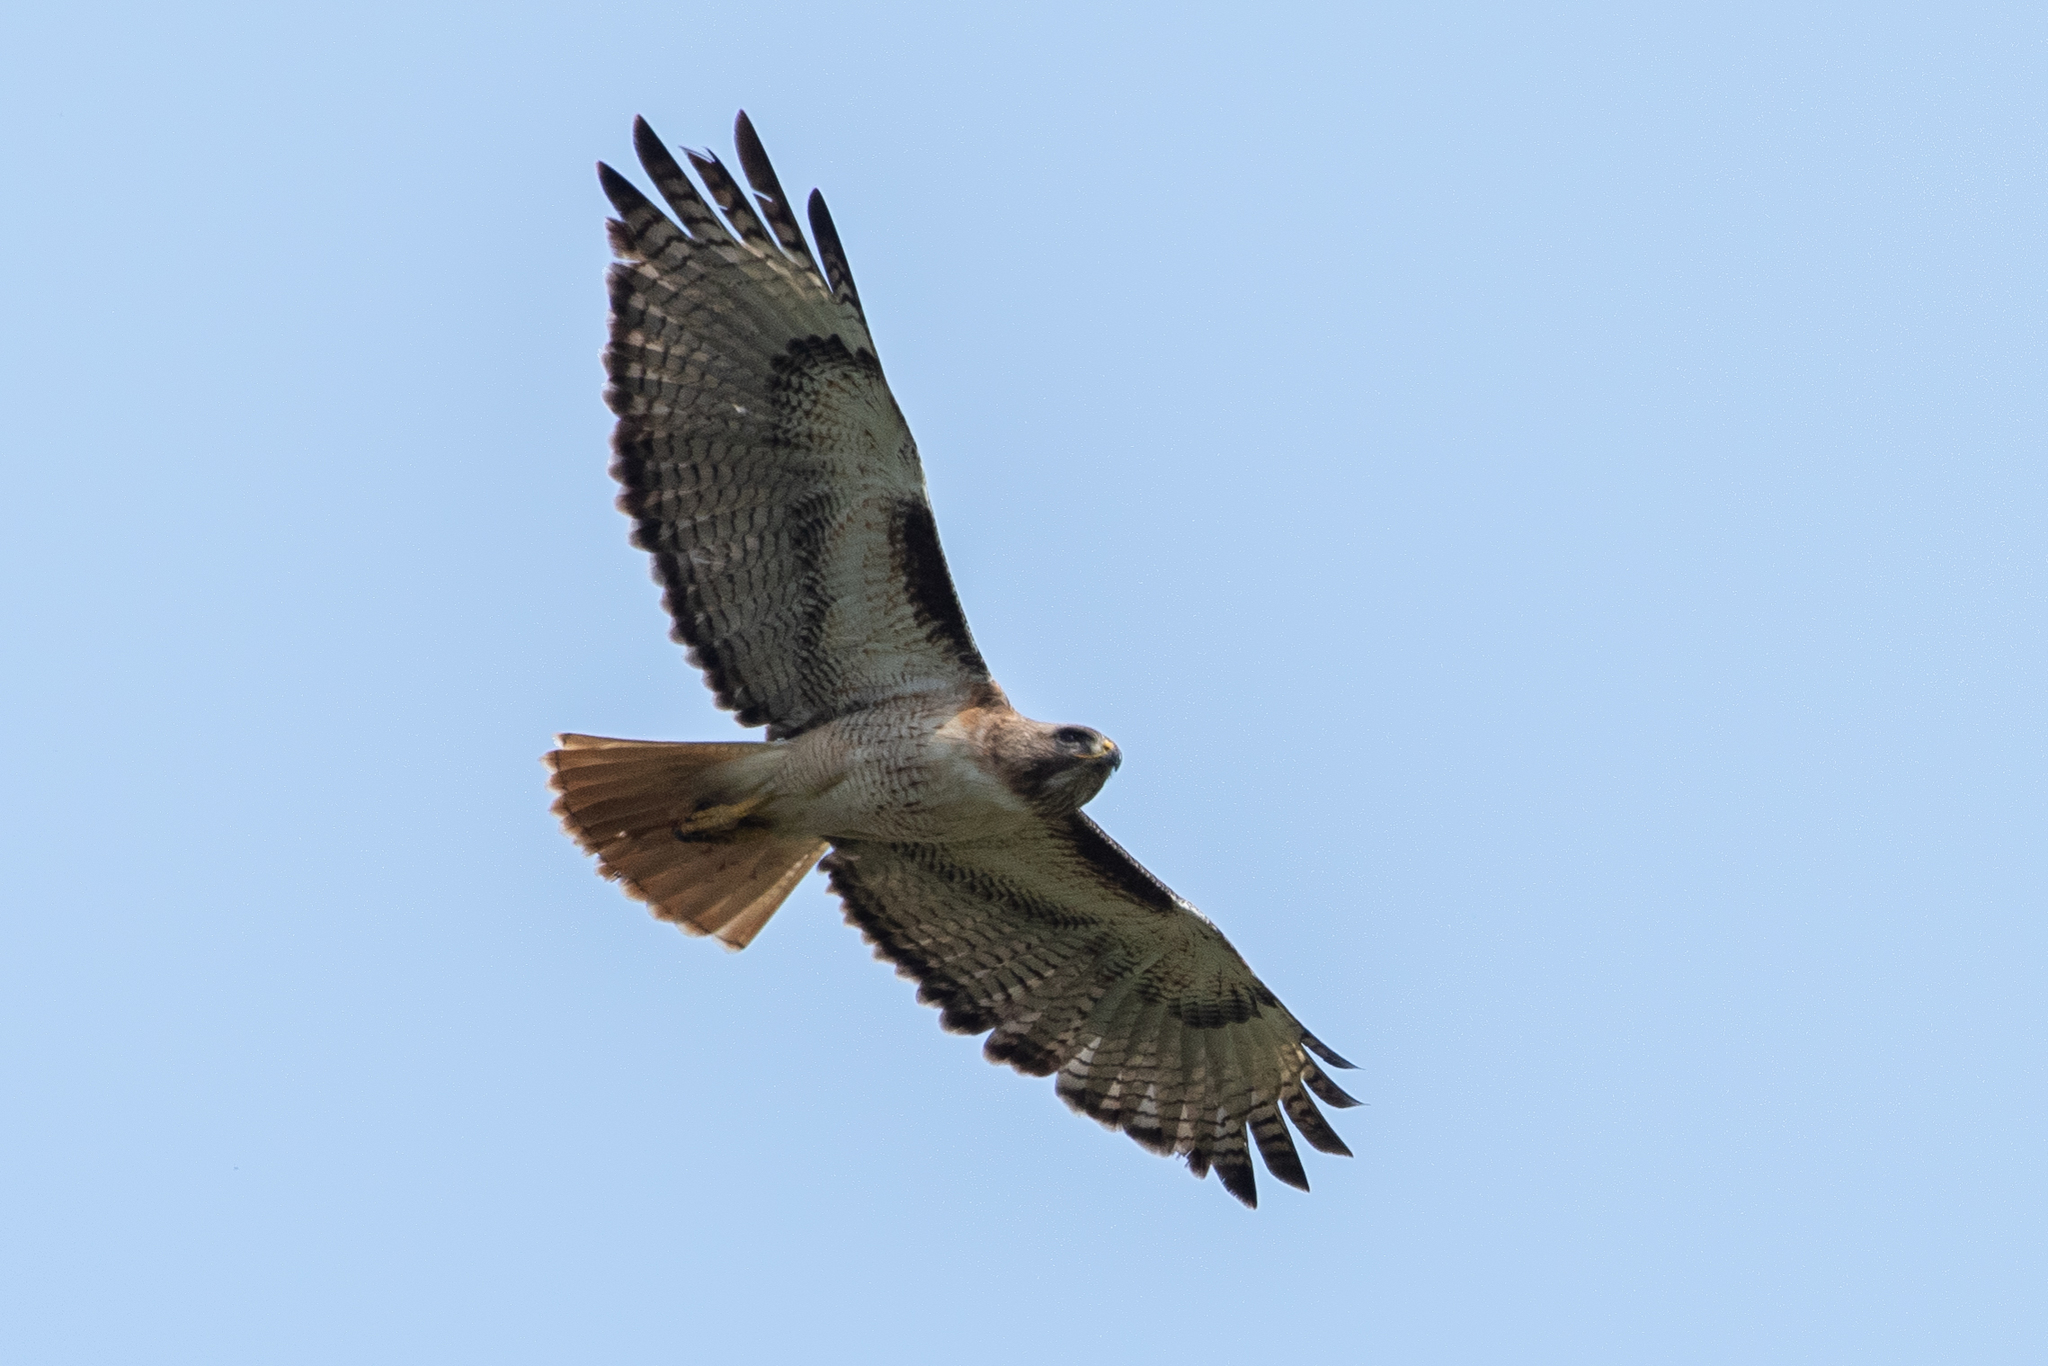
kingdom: Animalia
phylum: Chordata
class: Aves
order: Accipitriformes
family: Accipitridae
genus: Buteo
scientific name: Buteo jamaicensis
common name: Red-tailed hawk
